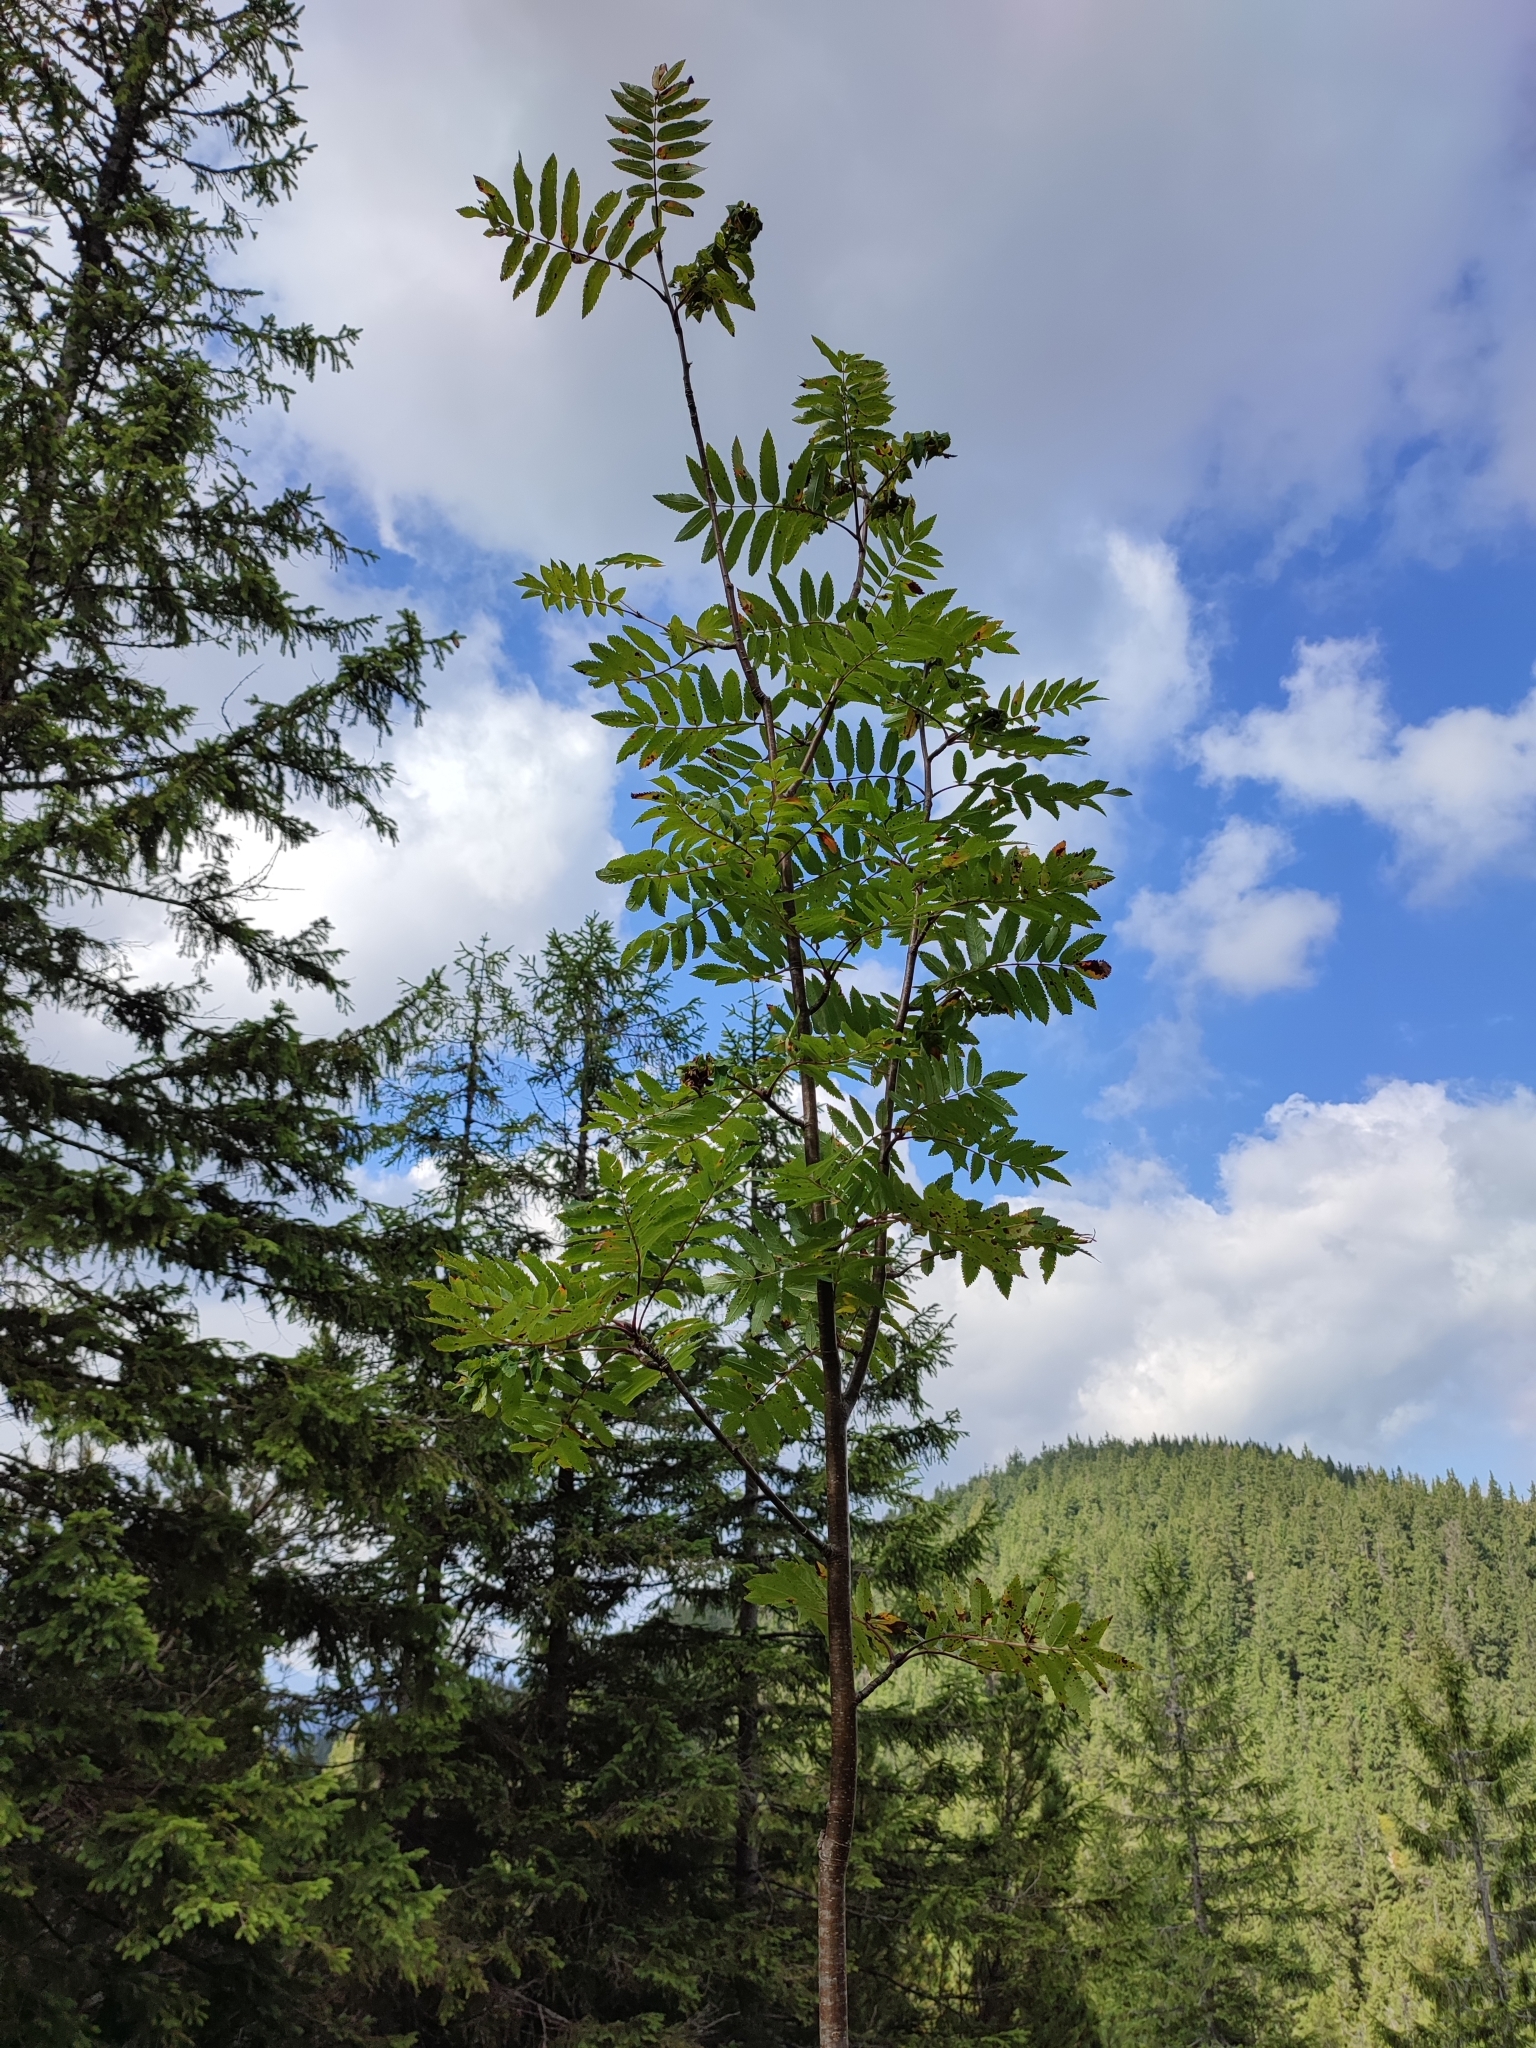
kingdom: Plantae
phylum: Tracheophyta
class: Magnoliopsida
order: Rosales
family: Rosaceae
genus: Sorbus
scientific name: Sorbus aucuparia
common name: Rowan
